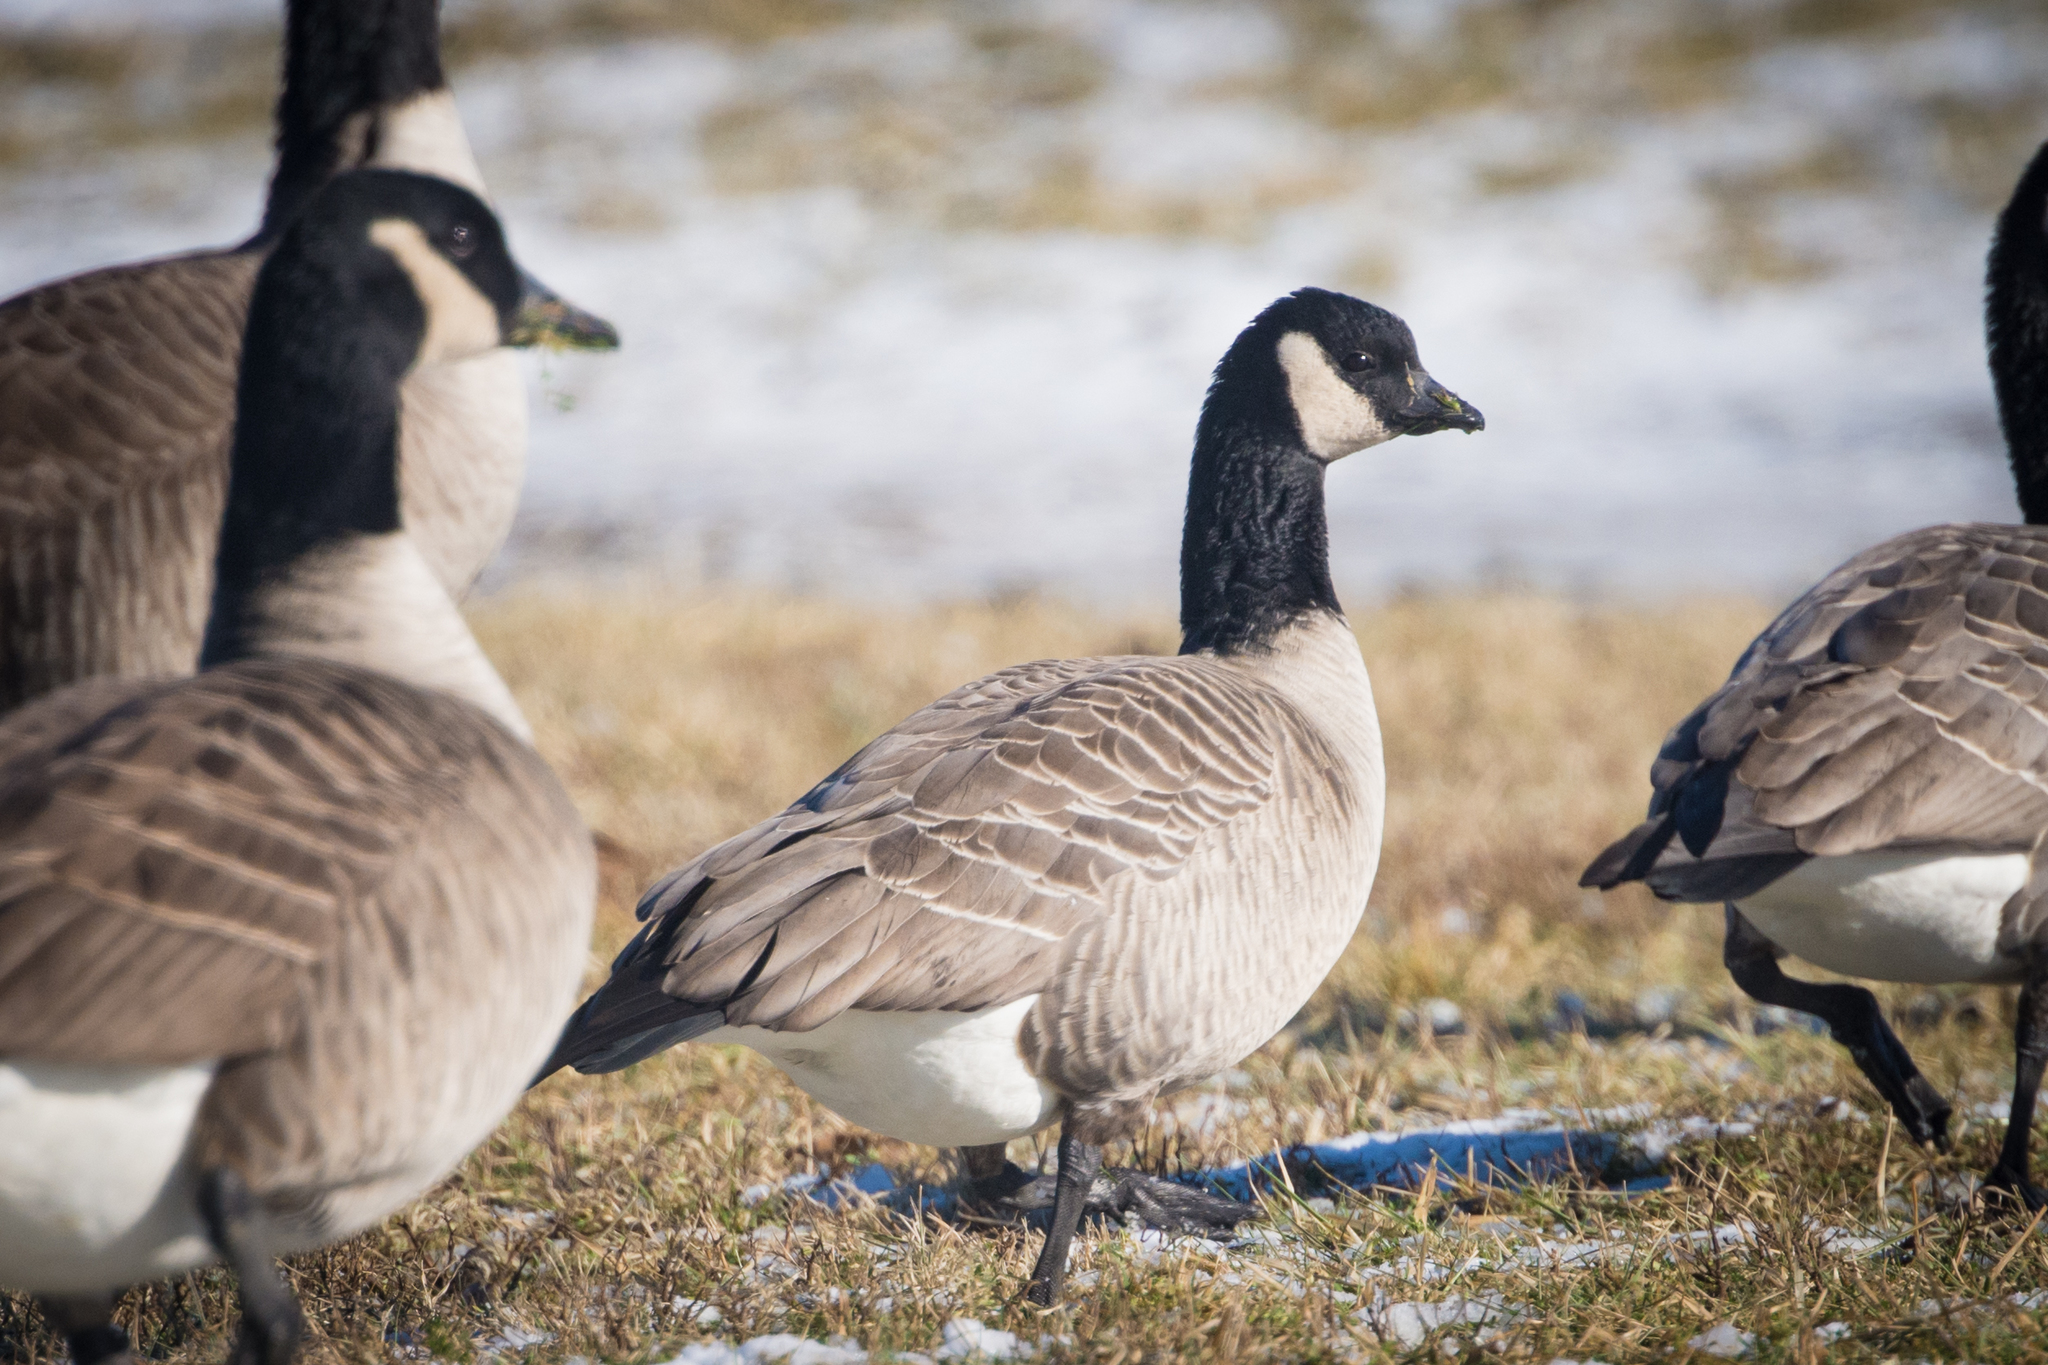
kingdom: Animalia
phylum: Chordata
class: Aves
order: Anseriformes
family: Anatidae
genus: Branta
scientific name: Branta hutchinsii
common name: Cackling goose
